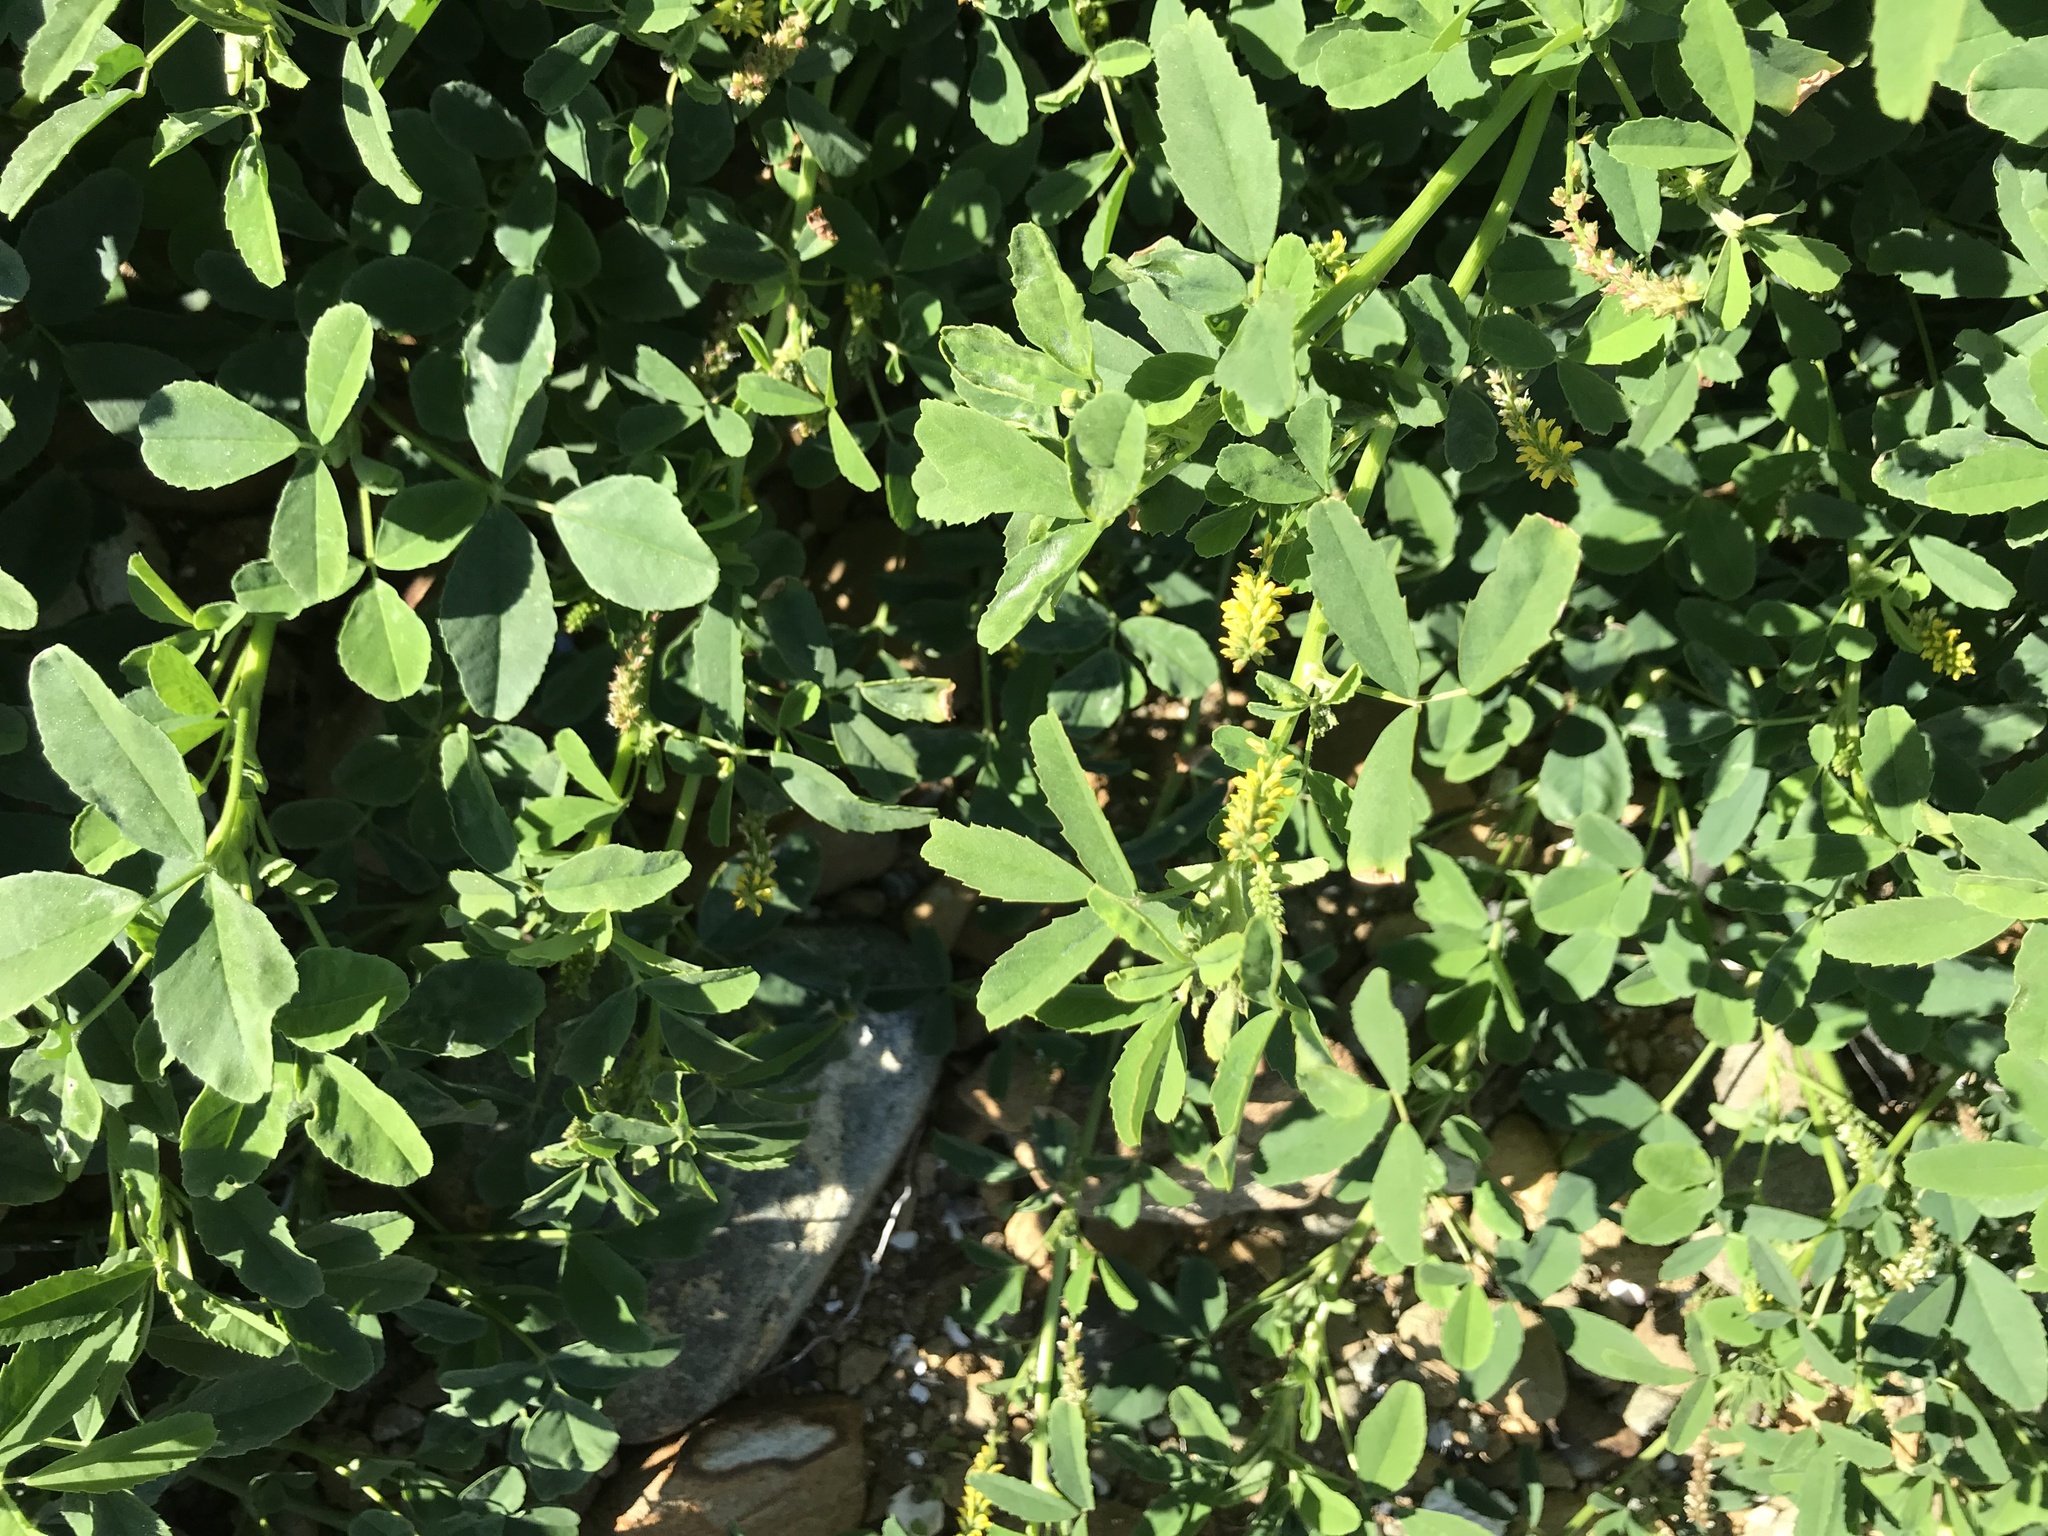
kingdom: Plantae
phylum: Tracheophyta
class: Magnoliopsida
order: Fabales
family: Fabaceae
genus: Medicago
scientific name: Medicago polymorpha
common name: Burclover
